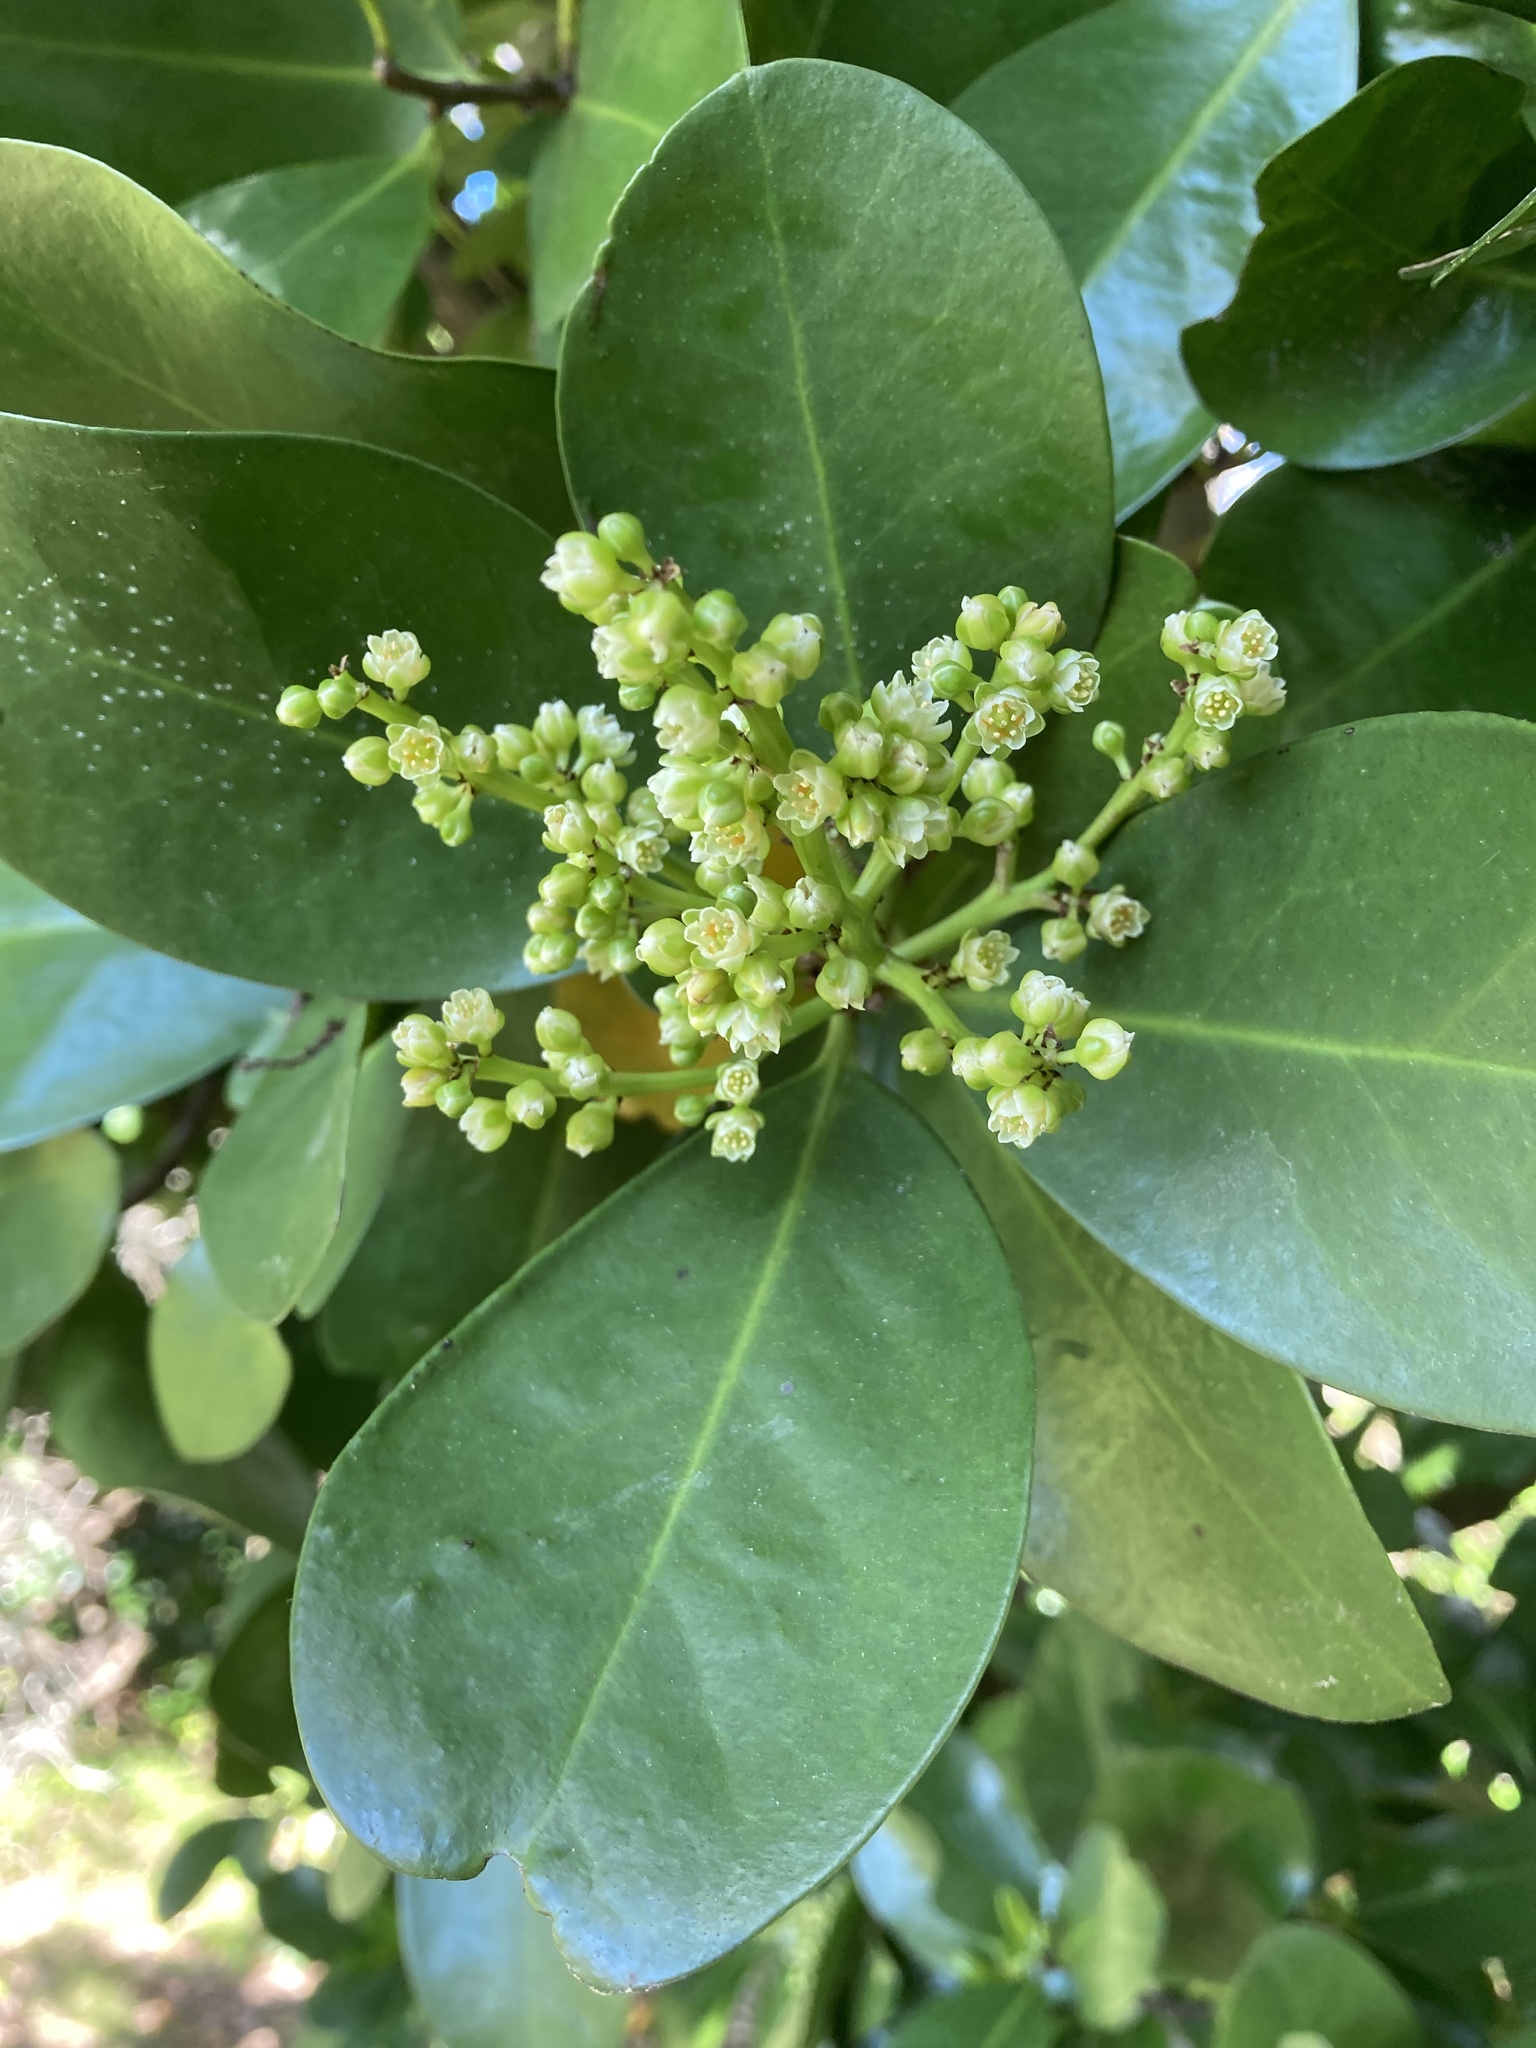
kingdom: Plantae
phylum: Tracheophyta
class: Magnoliopsida
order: Cucurbitales
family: Corynocarpaceae
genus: Corynocarpus
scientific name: Corynocarpus laevigatus
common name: New zealand laurel
